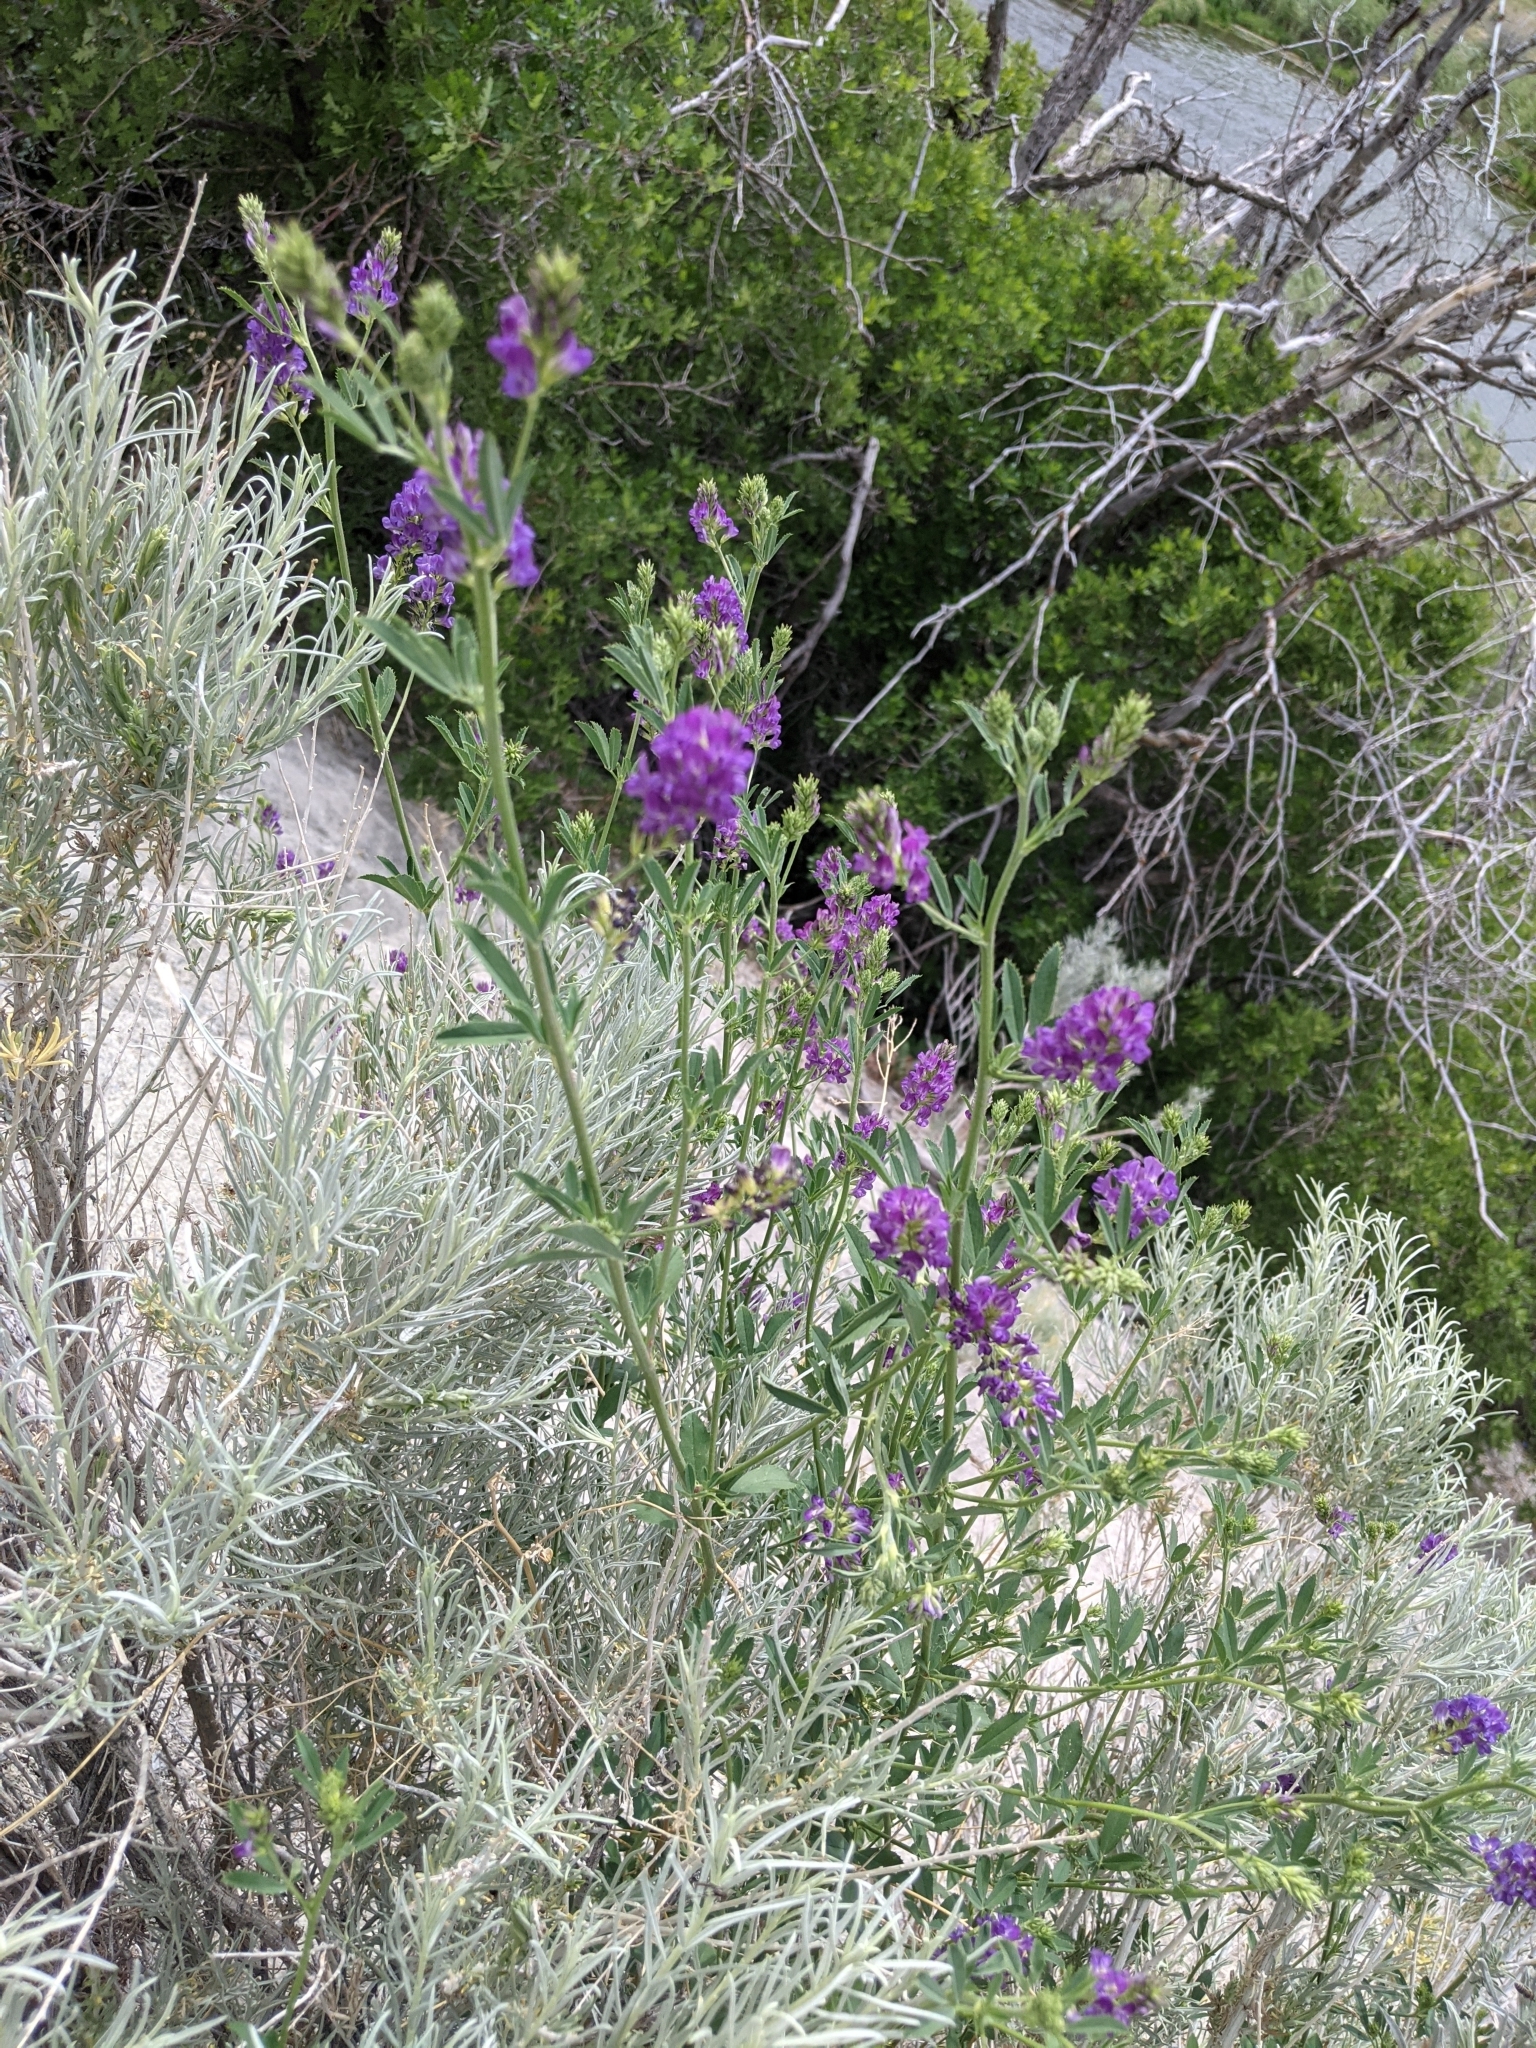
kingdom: Plantae
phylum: Tracheophyta
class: Magnoliopsida
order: Fabales
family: Fabaceae
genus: Medicago
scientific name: Medicago sativa
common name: Alfalfa
